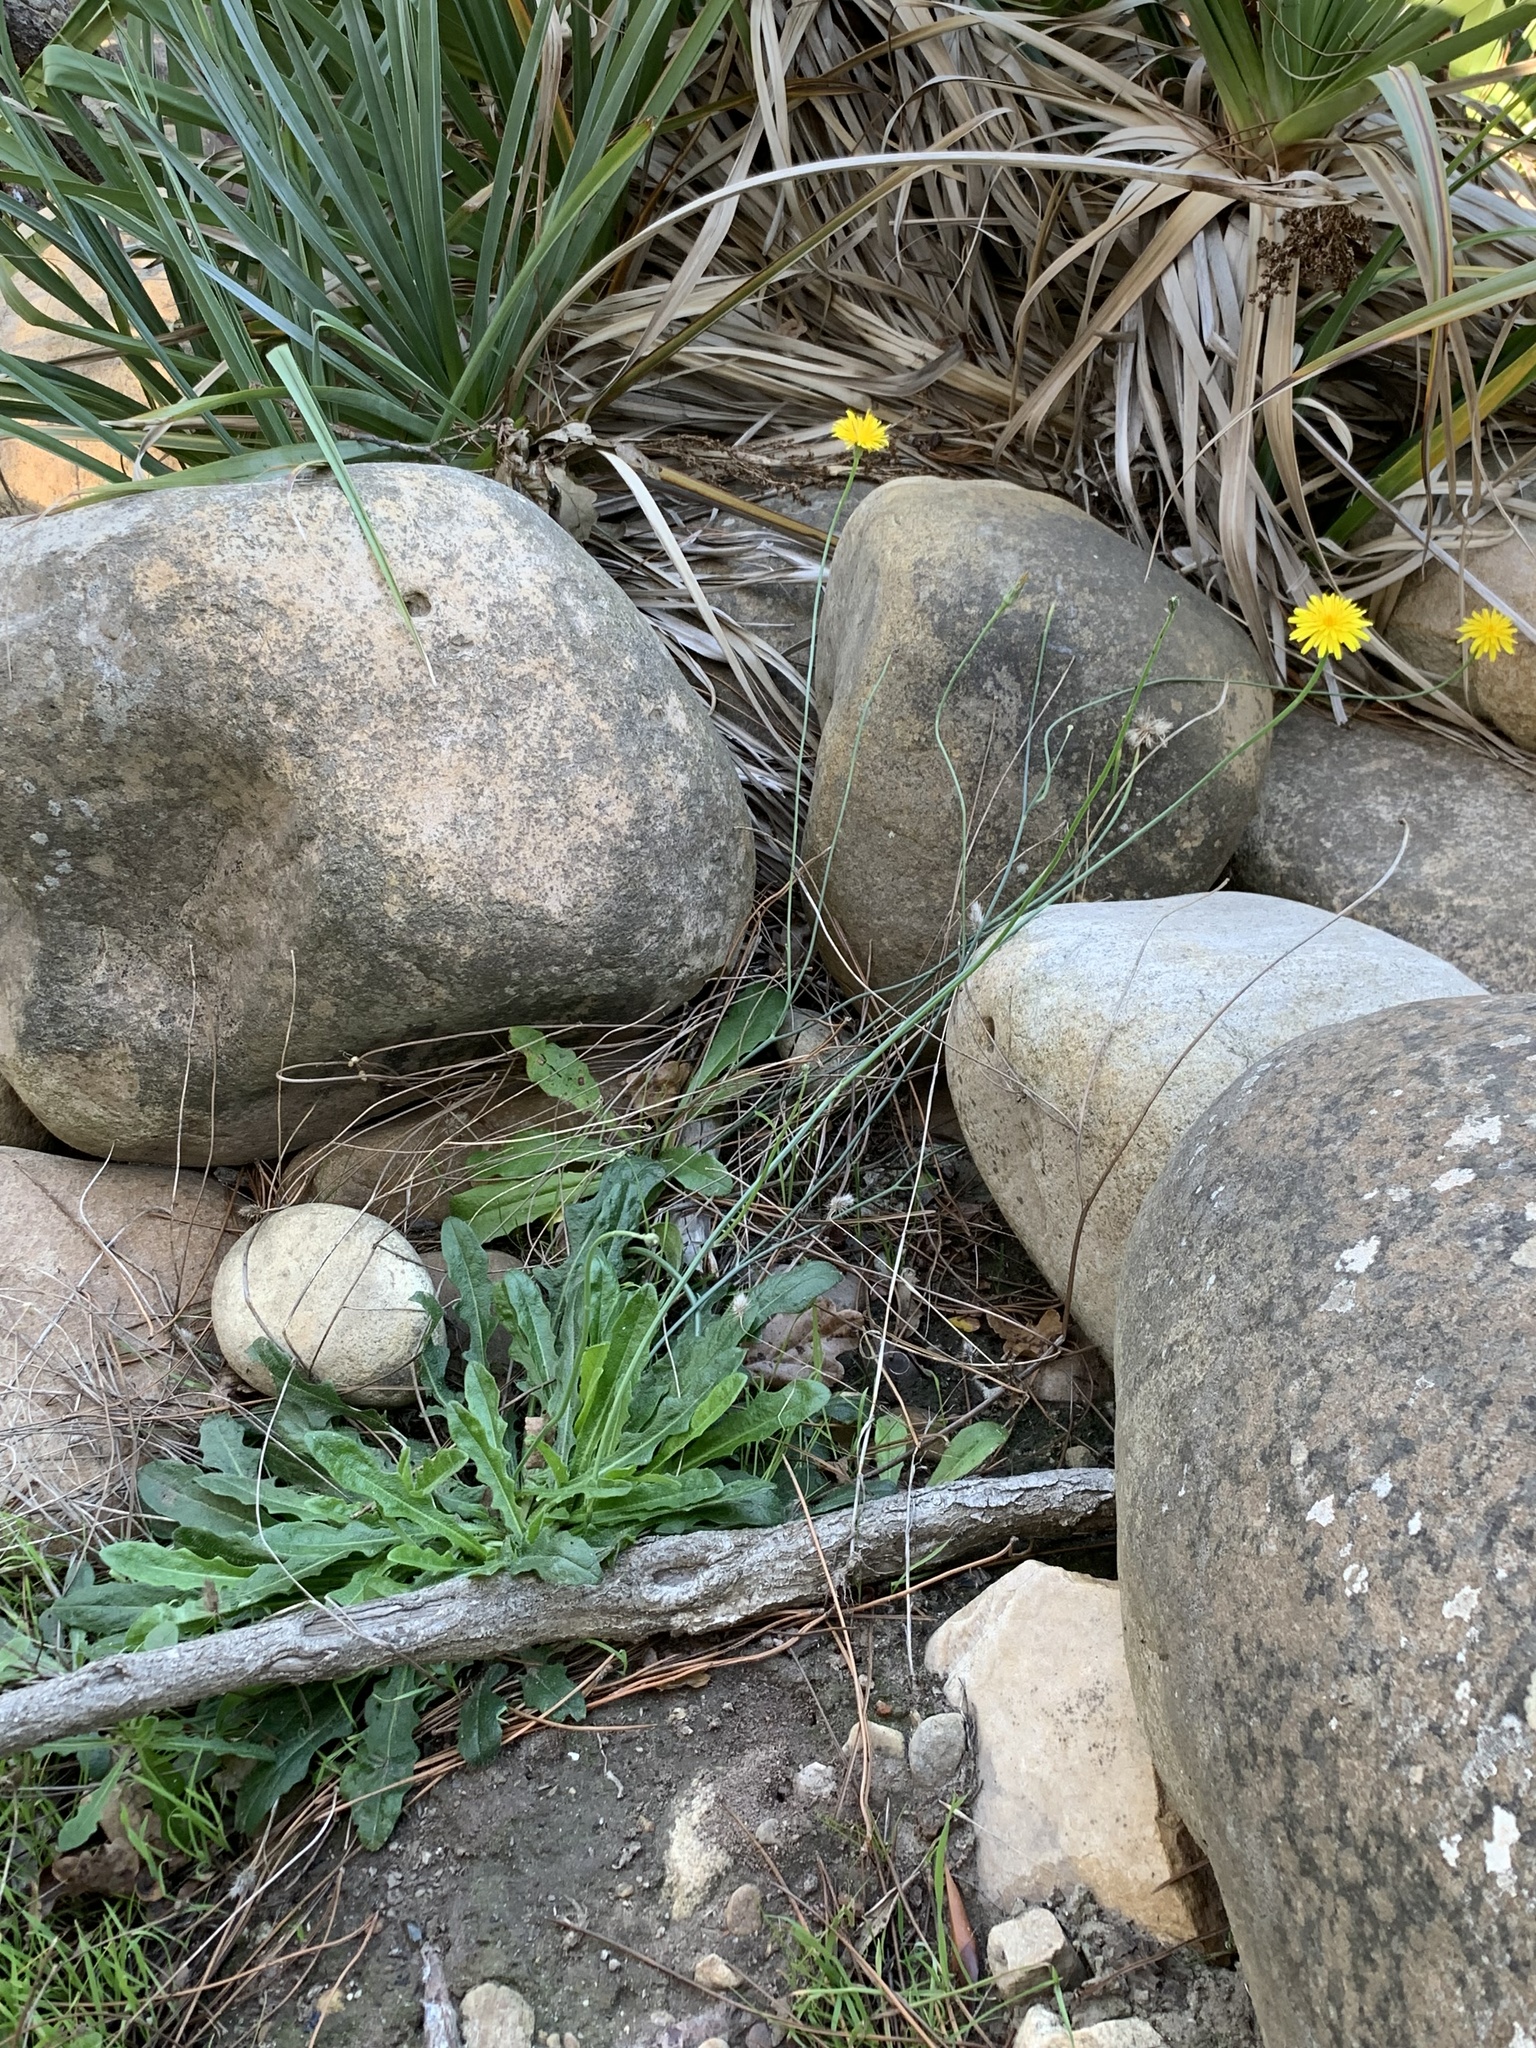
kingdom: Plantae
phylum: Tracheophyta
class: Magnoliopsida
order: Asterales
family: Asteraceae
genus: Hypochaeris
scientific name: Hypochaeris radicata
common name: Flatweed
